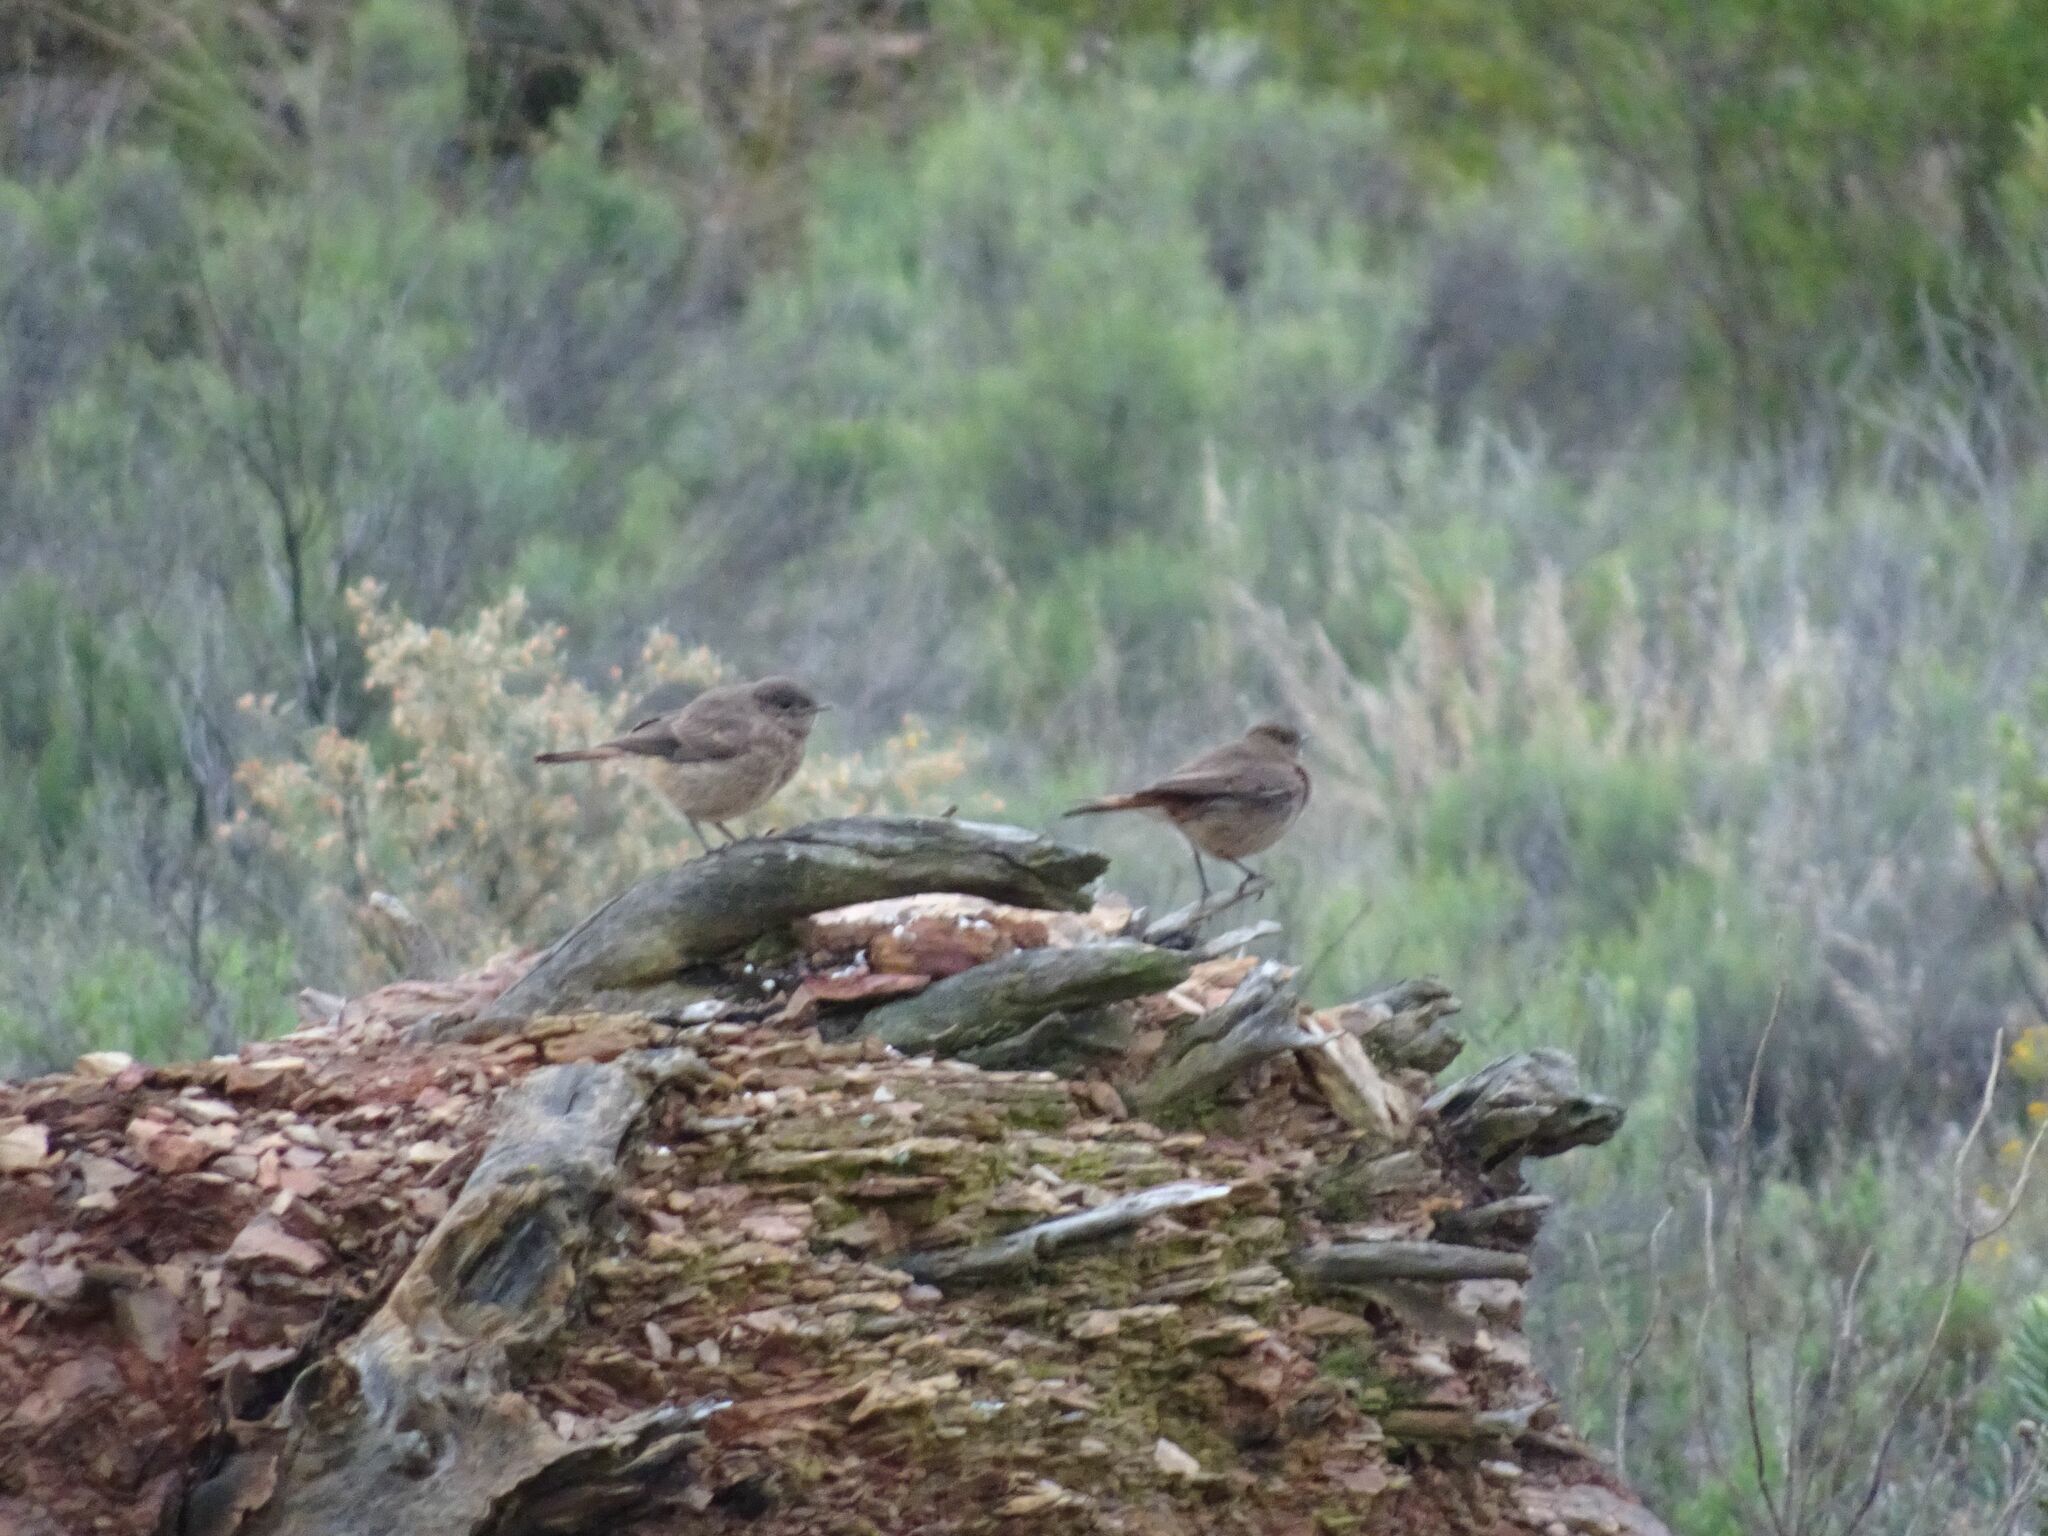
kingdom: Animalia
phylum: Chordata
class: Aves
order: Passeriformes
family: Muscicapidae
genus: Oenanthe
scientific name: Oenanthe familiaris
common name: Familiar chat
